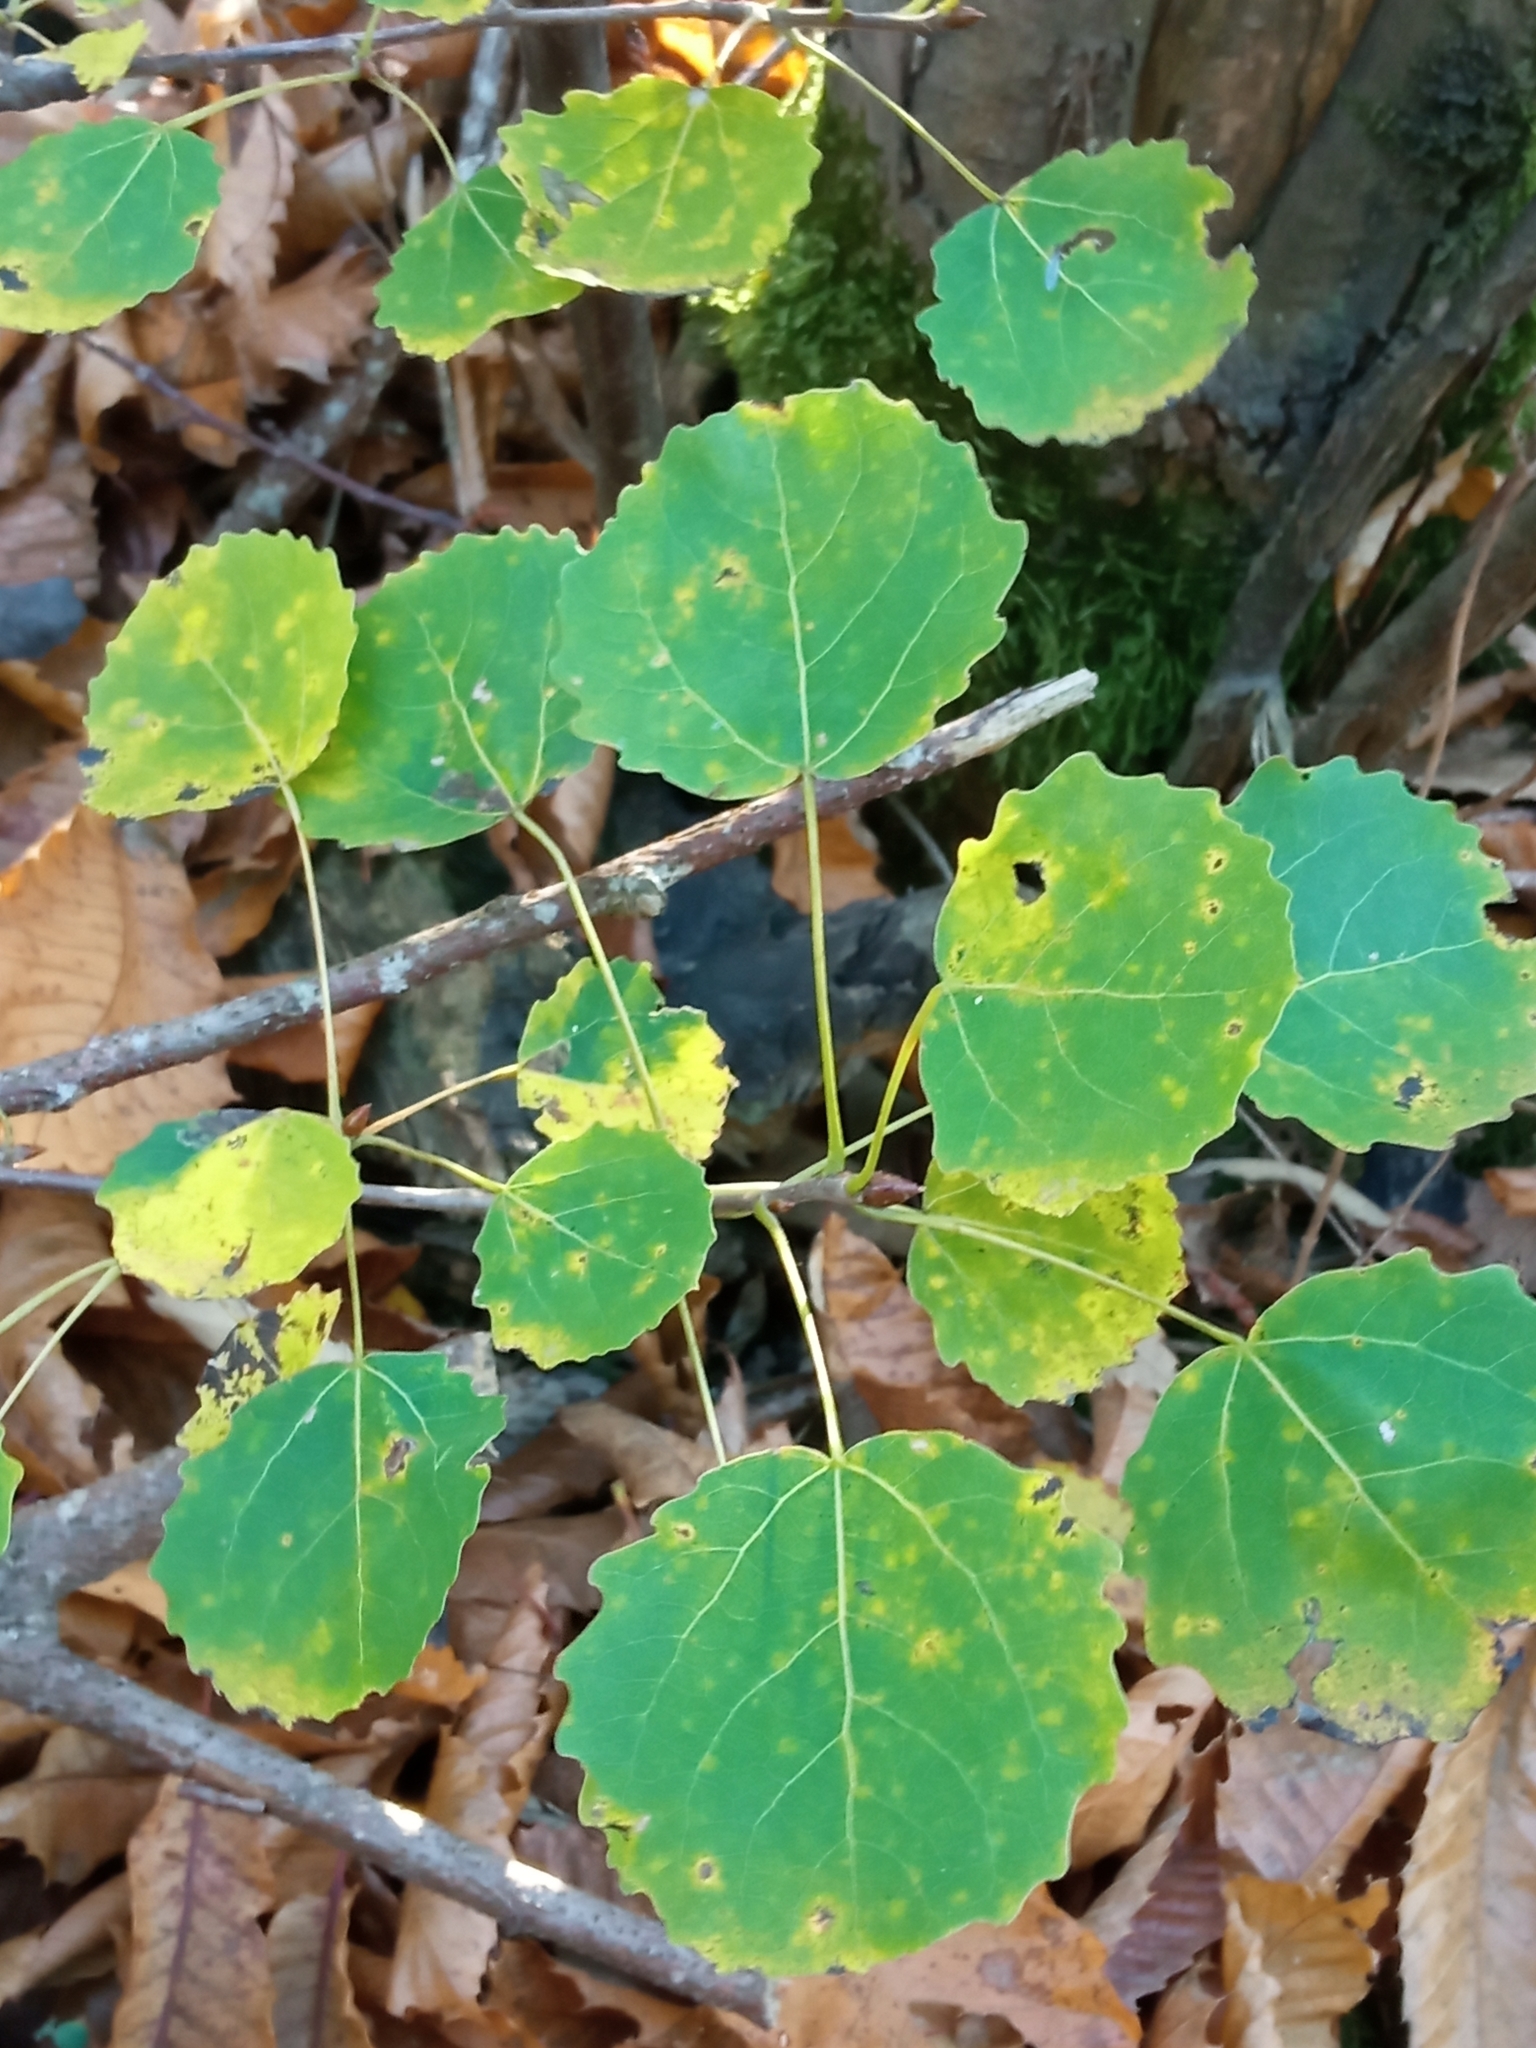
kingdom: Plantae
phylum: Tracheophyta
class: Magnoliopsida
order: Malpighiales
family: Salicaceae
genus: Populus
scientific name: Populus tremula
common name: European aspen
